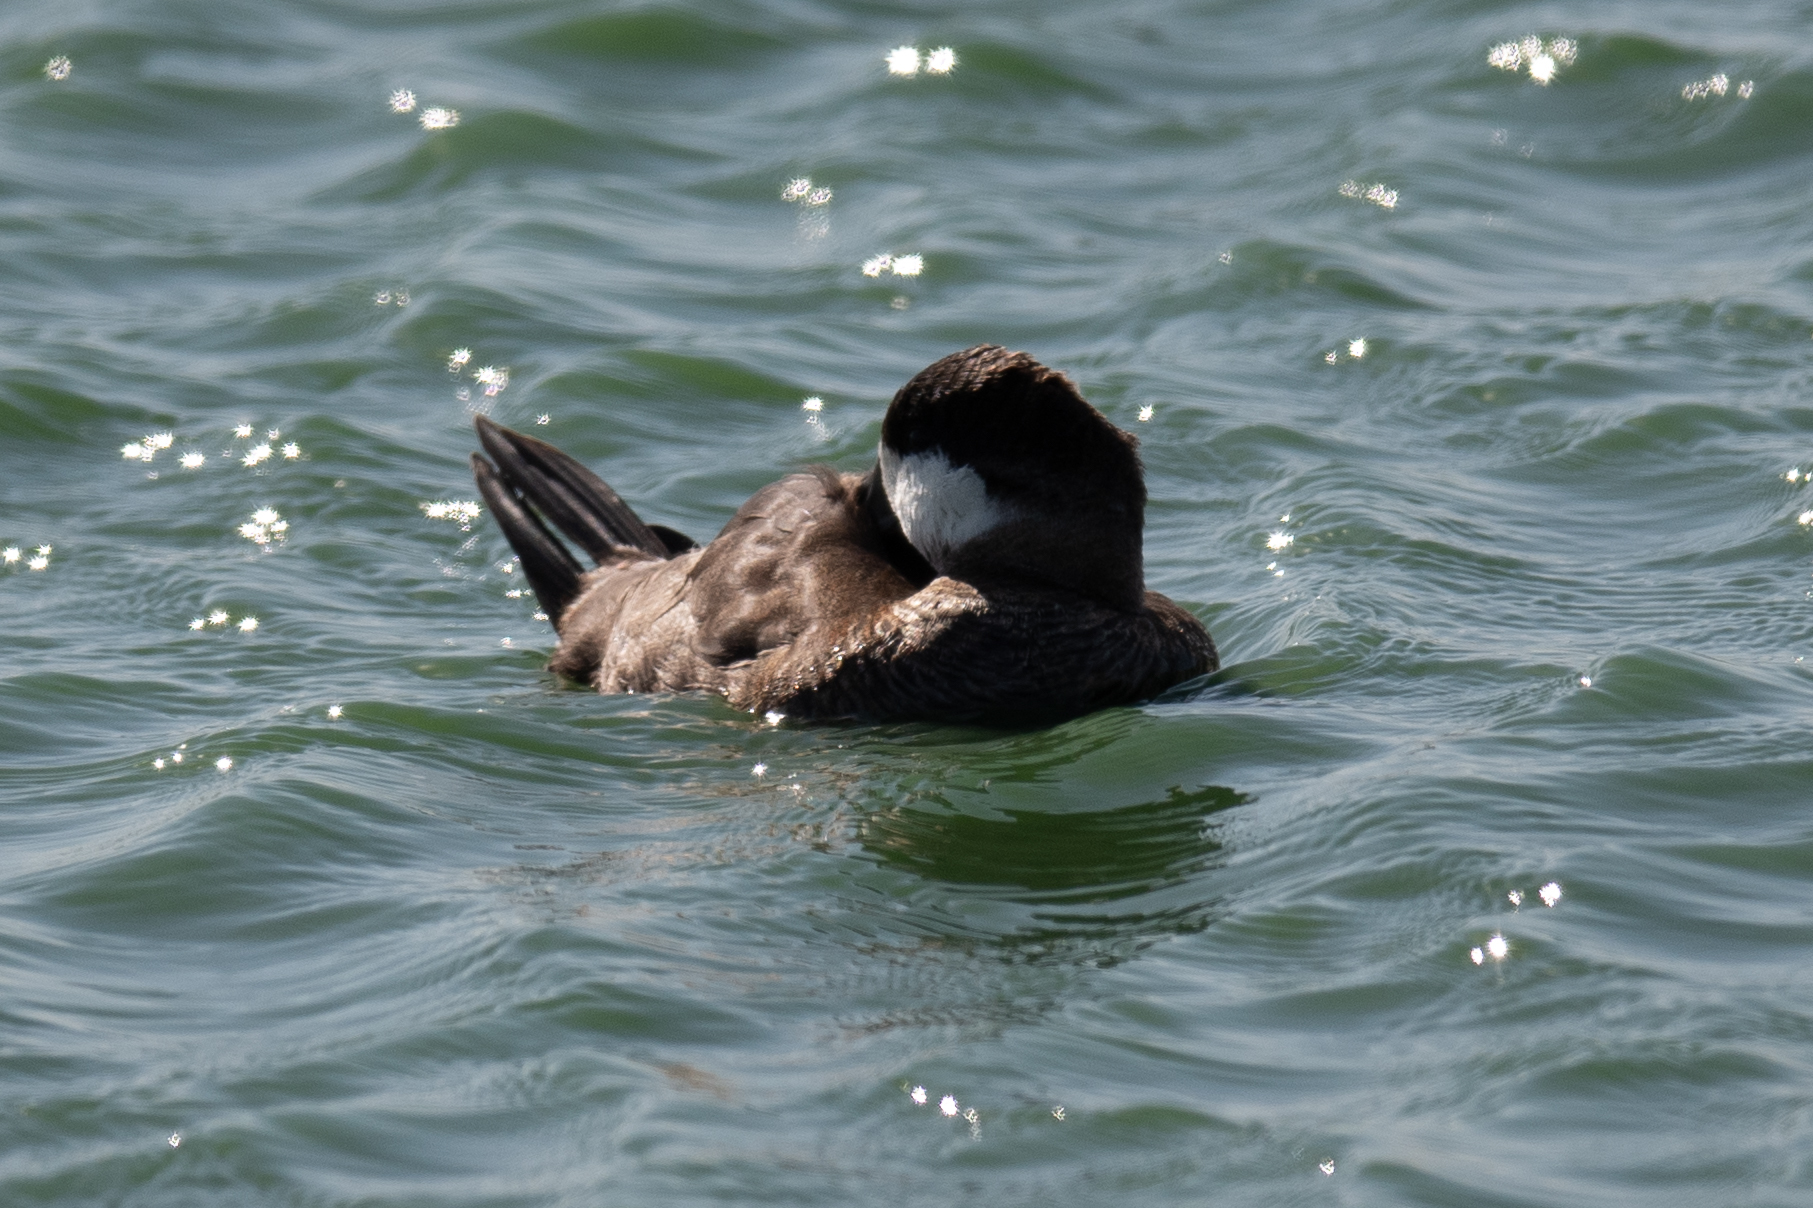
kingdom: Animalia
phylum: Chordata
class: Aves
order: Anseriformes
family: Anatidae
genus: Oxyura
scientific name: Oxyura jamaicensis
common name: Ruddy duck
